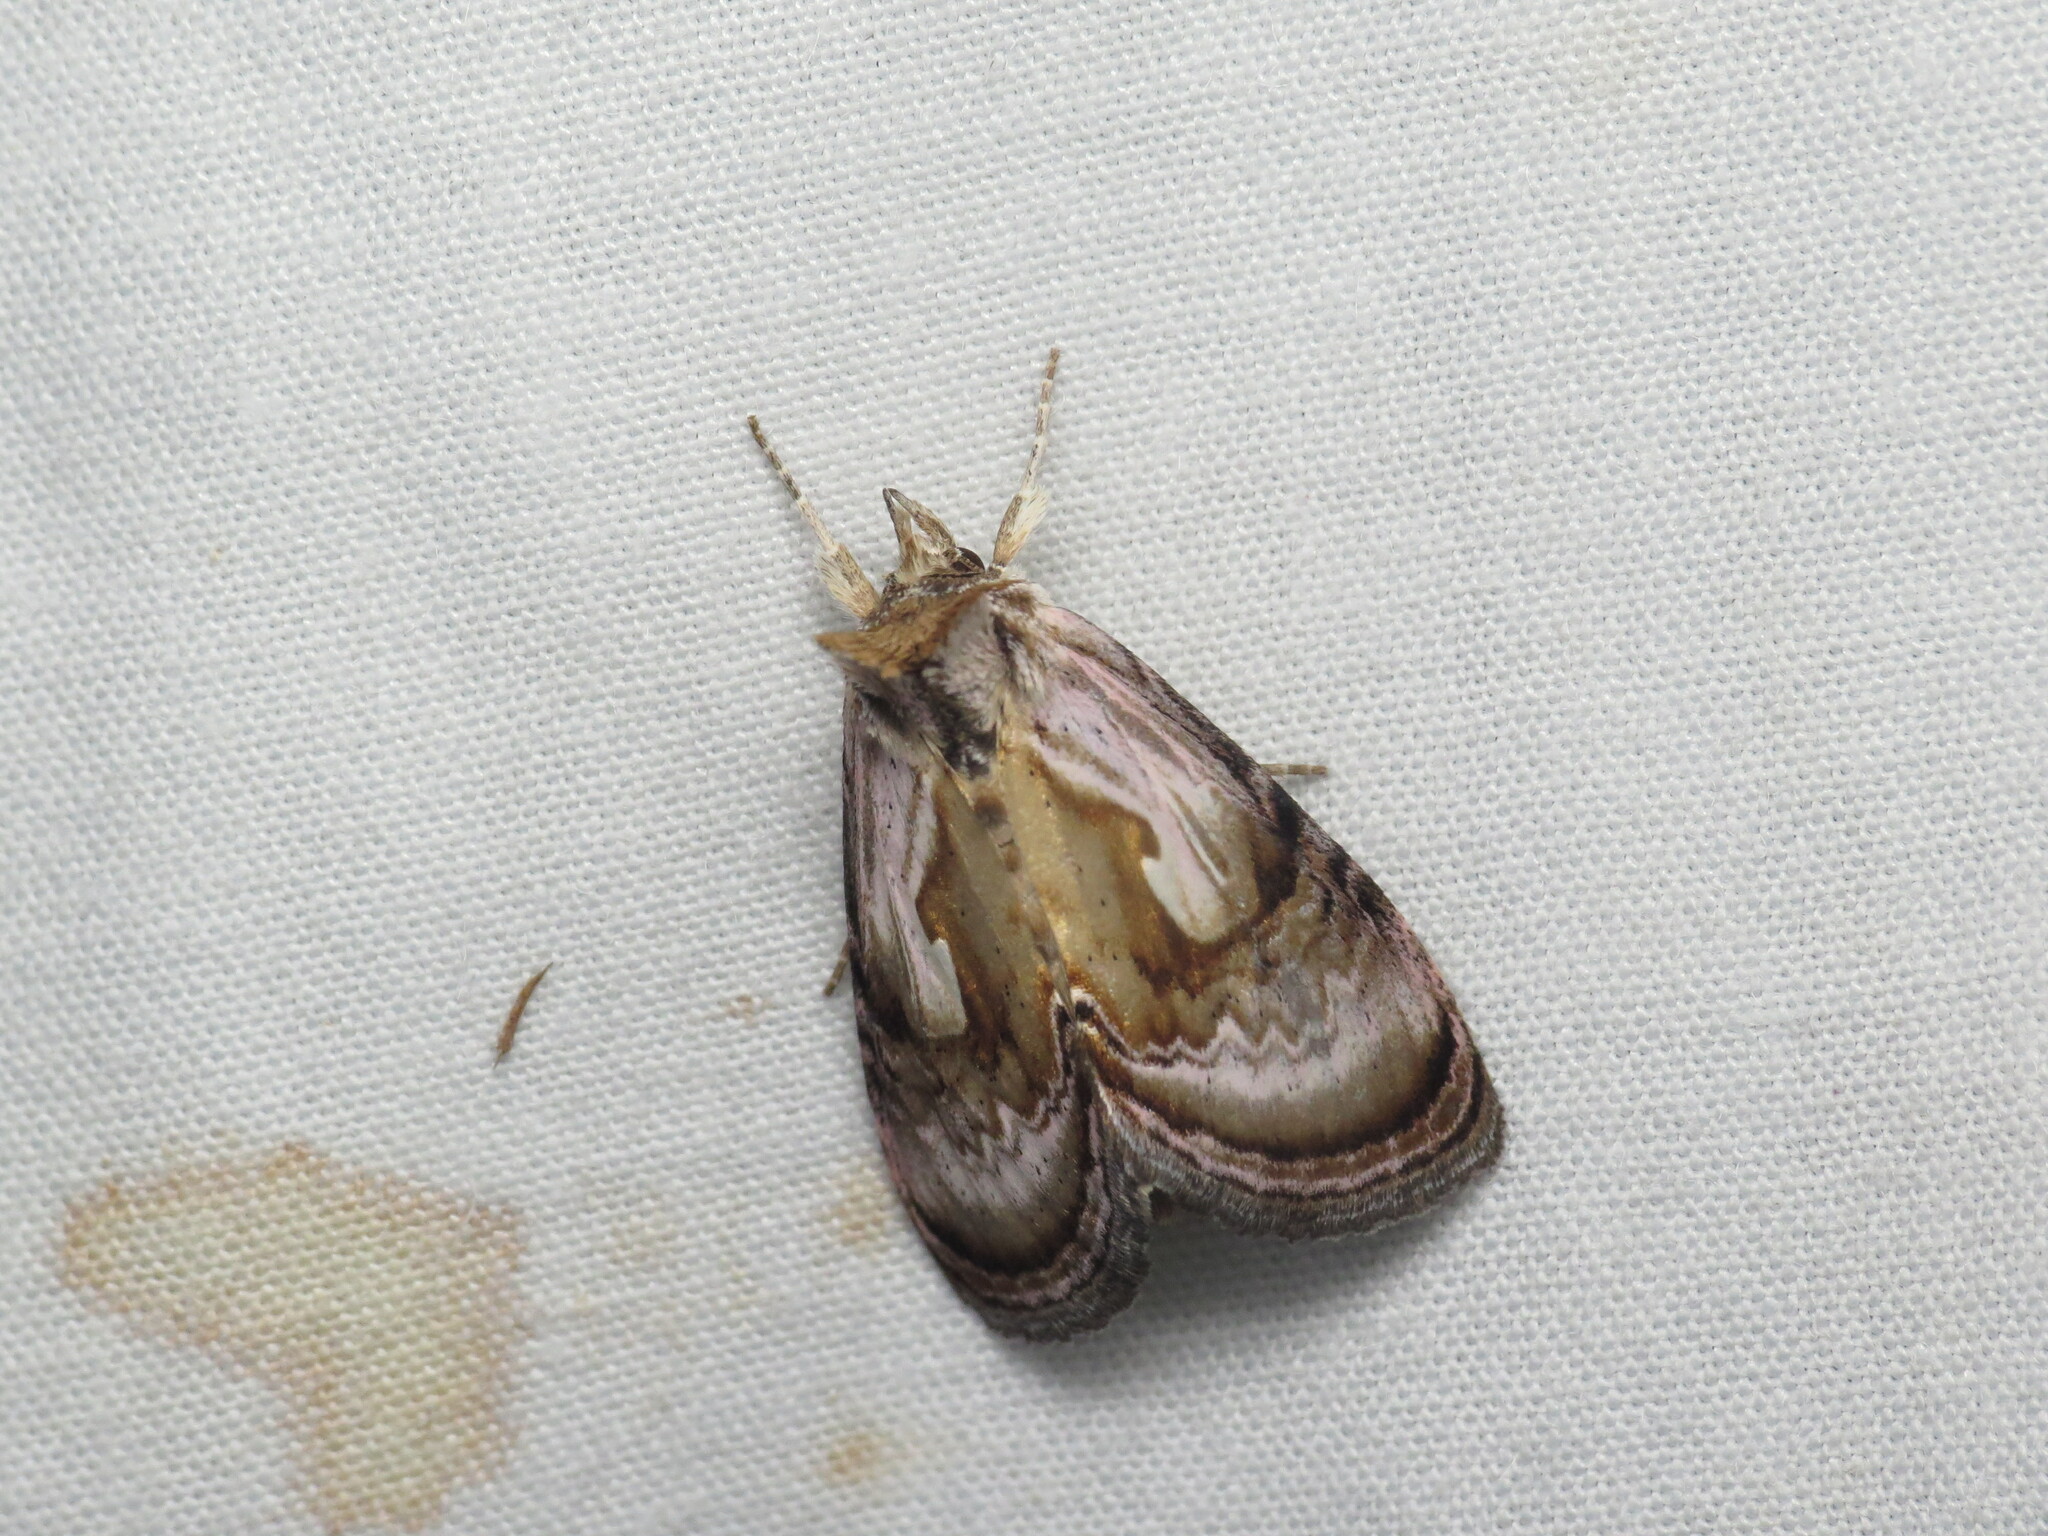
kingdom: Animalia
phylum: Arthropoda
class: Insecta
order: Lepidoptera
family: Noctuidae
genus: Chrysanympha
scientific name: Chrysanympha formosa
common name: Formosa looper moth
